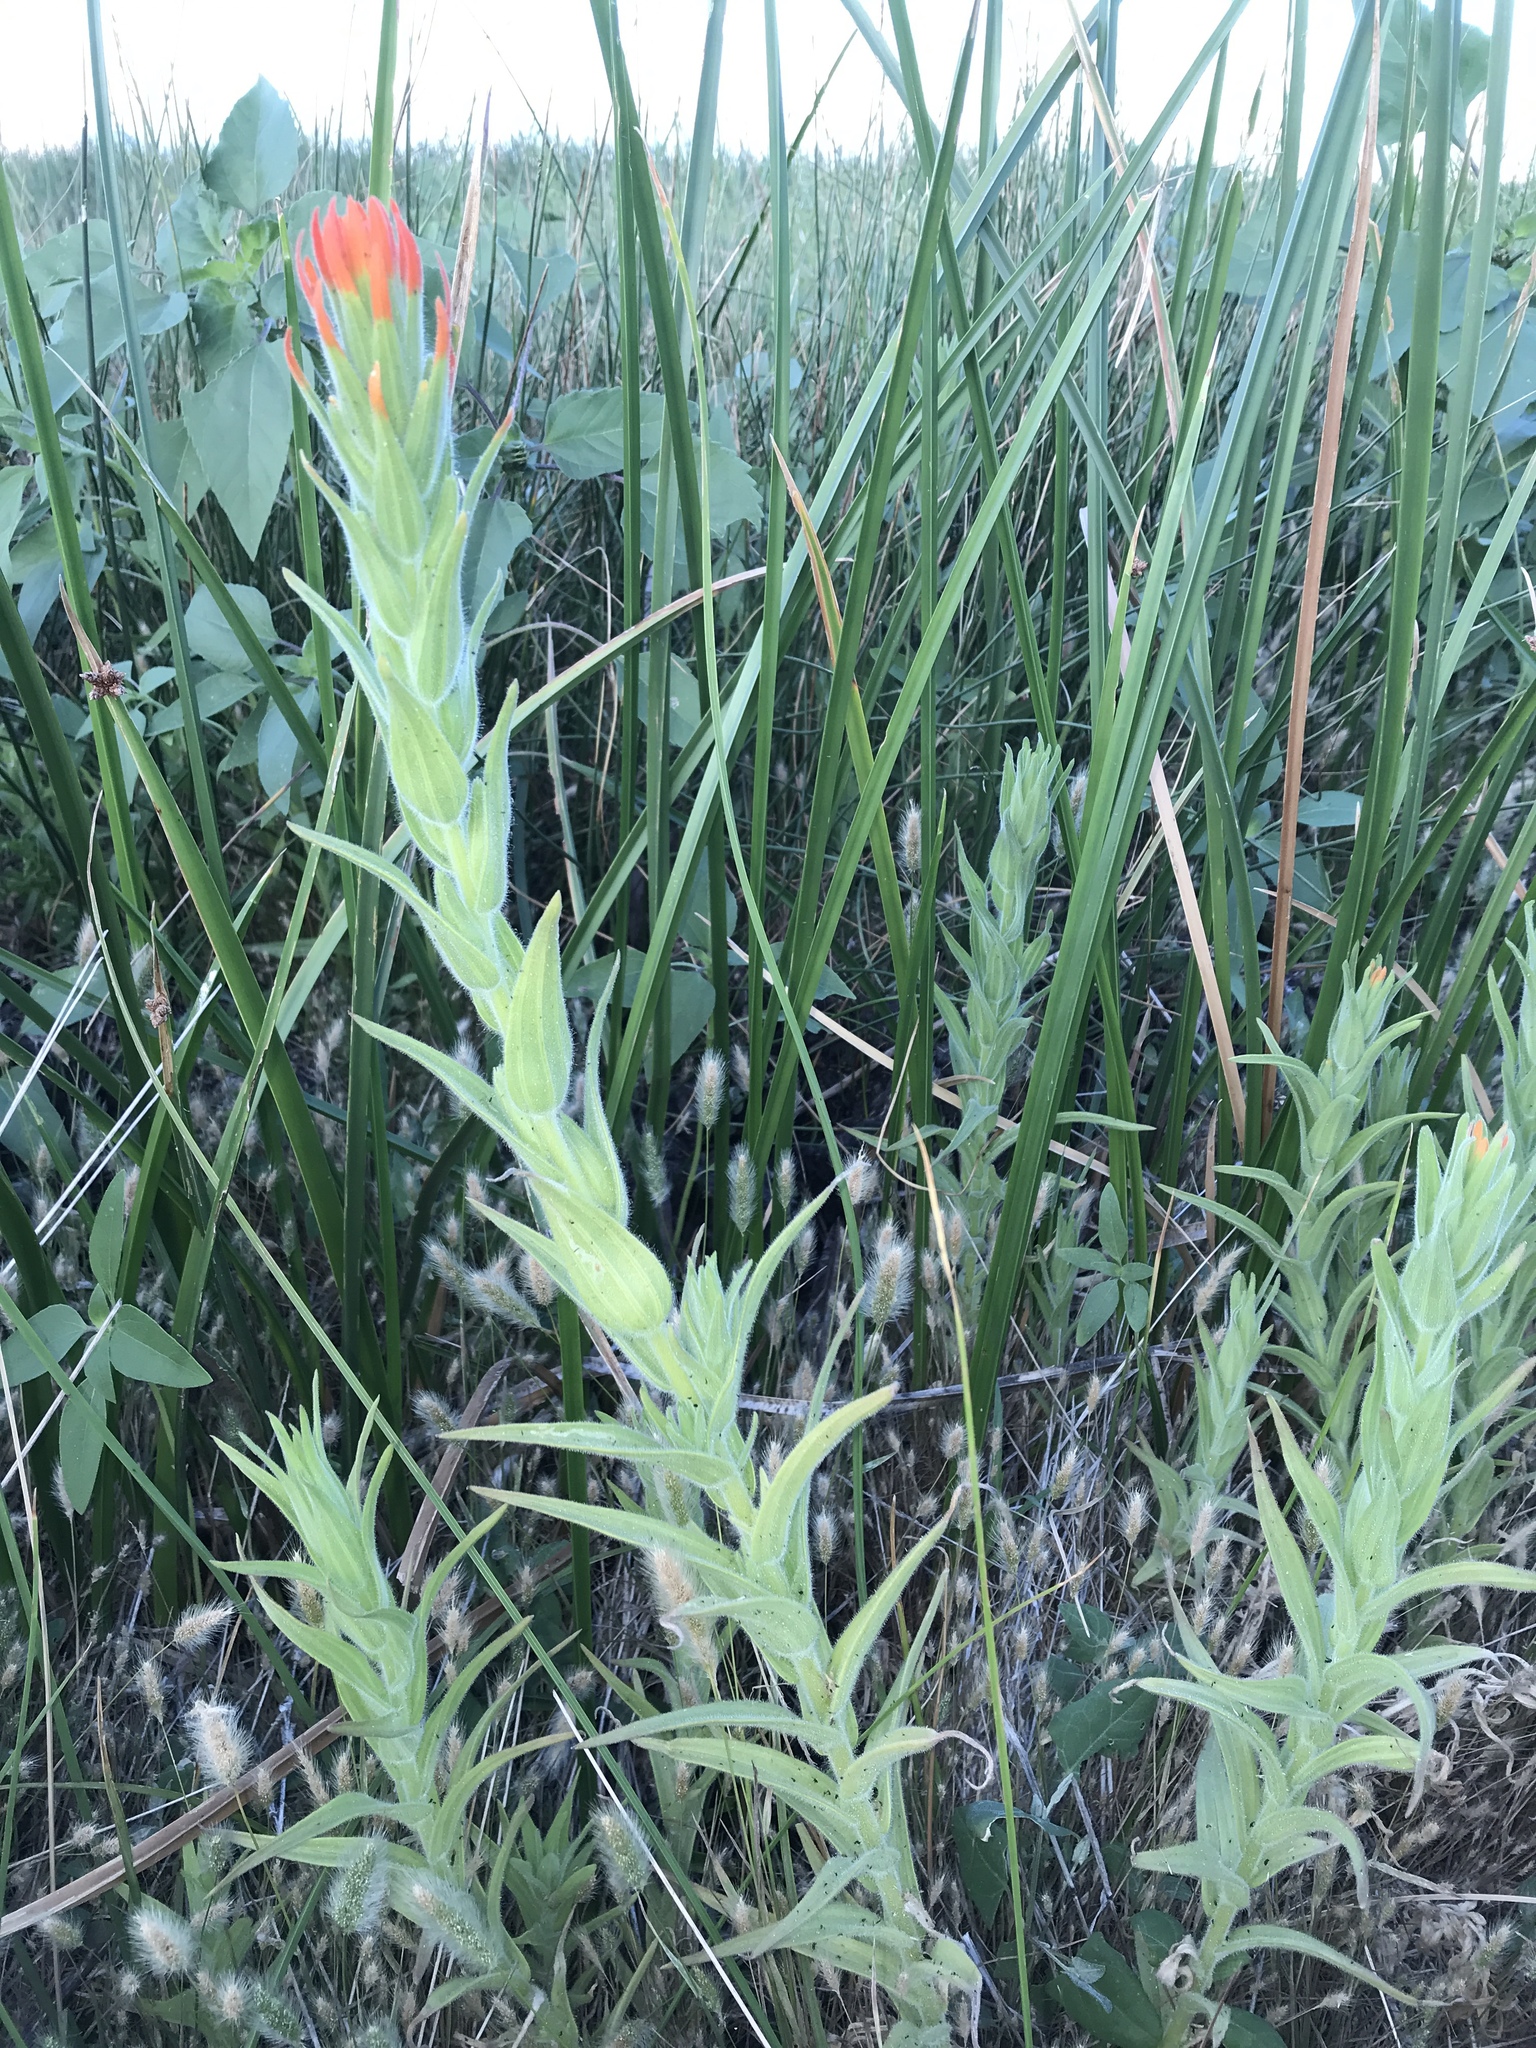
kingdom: Plantae
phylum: Tracheophyta
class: Magnoliopsida
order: Lamiales
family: Orobanchaceae
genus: Castilleja
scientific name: Castilleja minor
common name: Seep paintbrush
